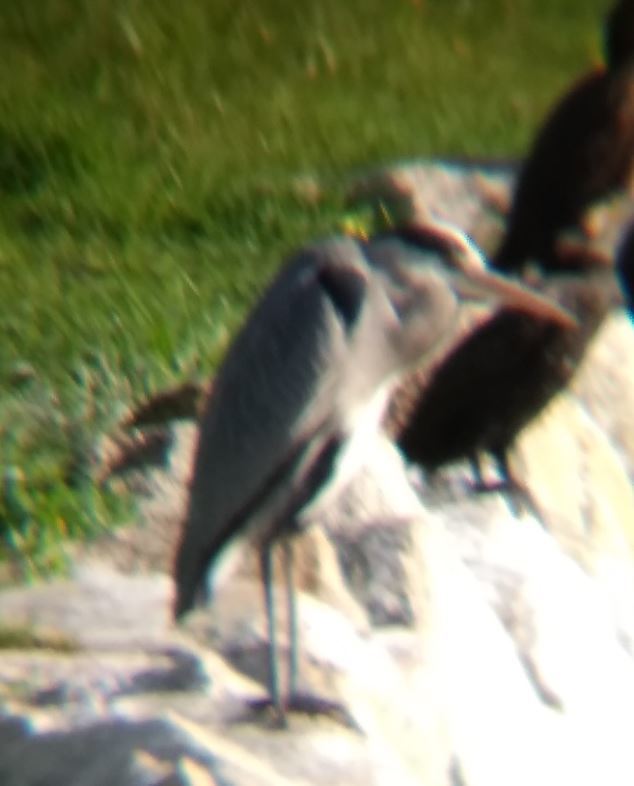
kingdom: Animalia
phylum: Chordata
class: Aves
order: Pelecaniformes
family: Ardeidae
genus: Ardea
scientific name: Ardea cinerea
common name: Grey heron
